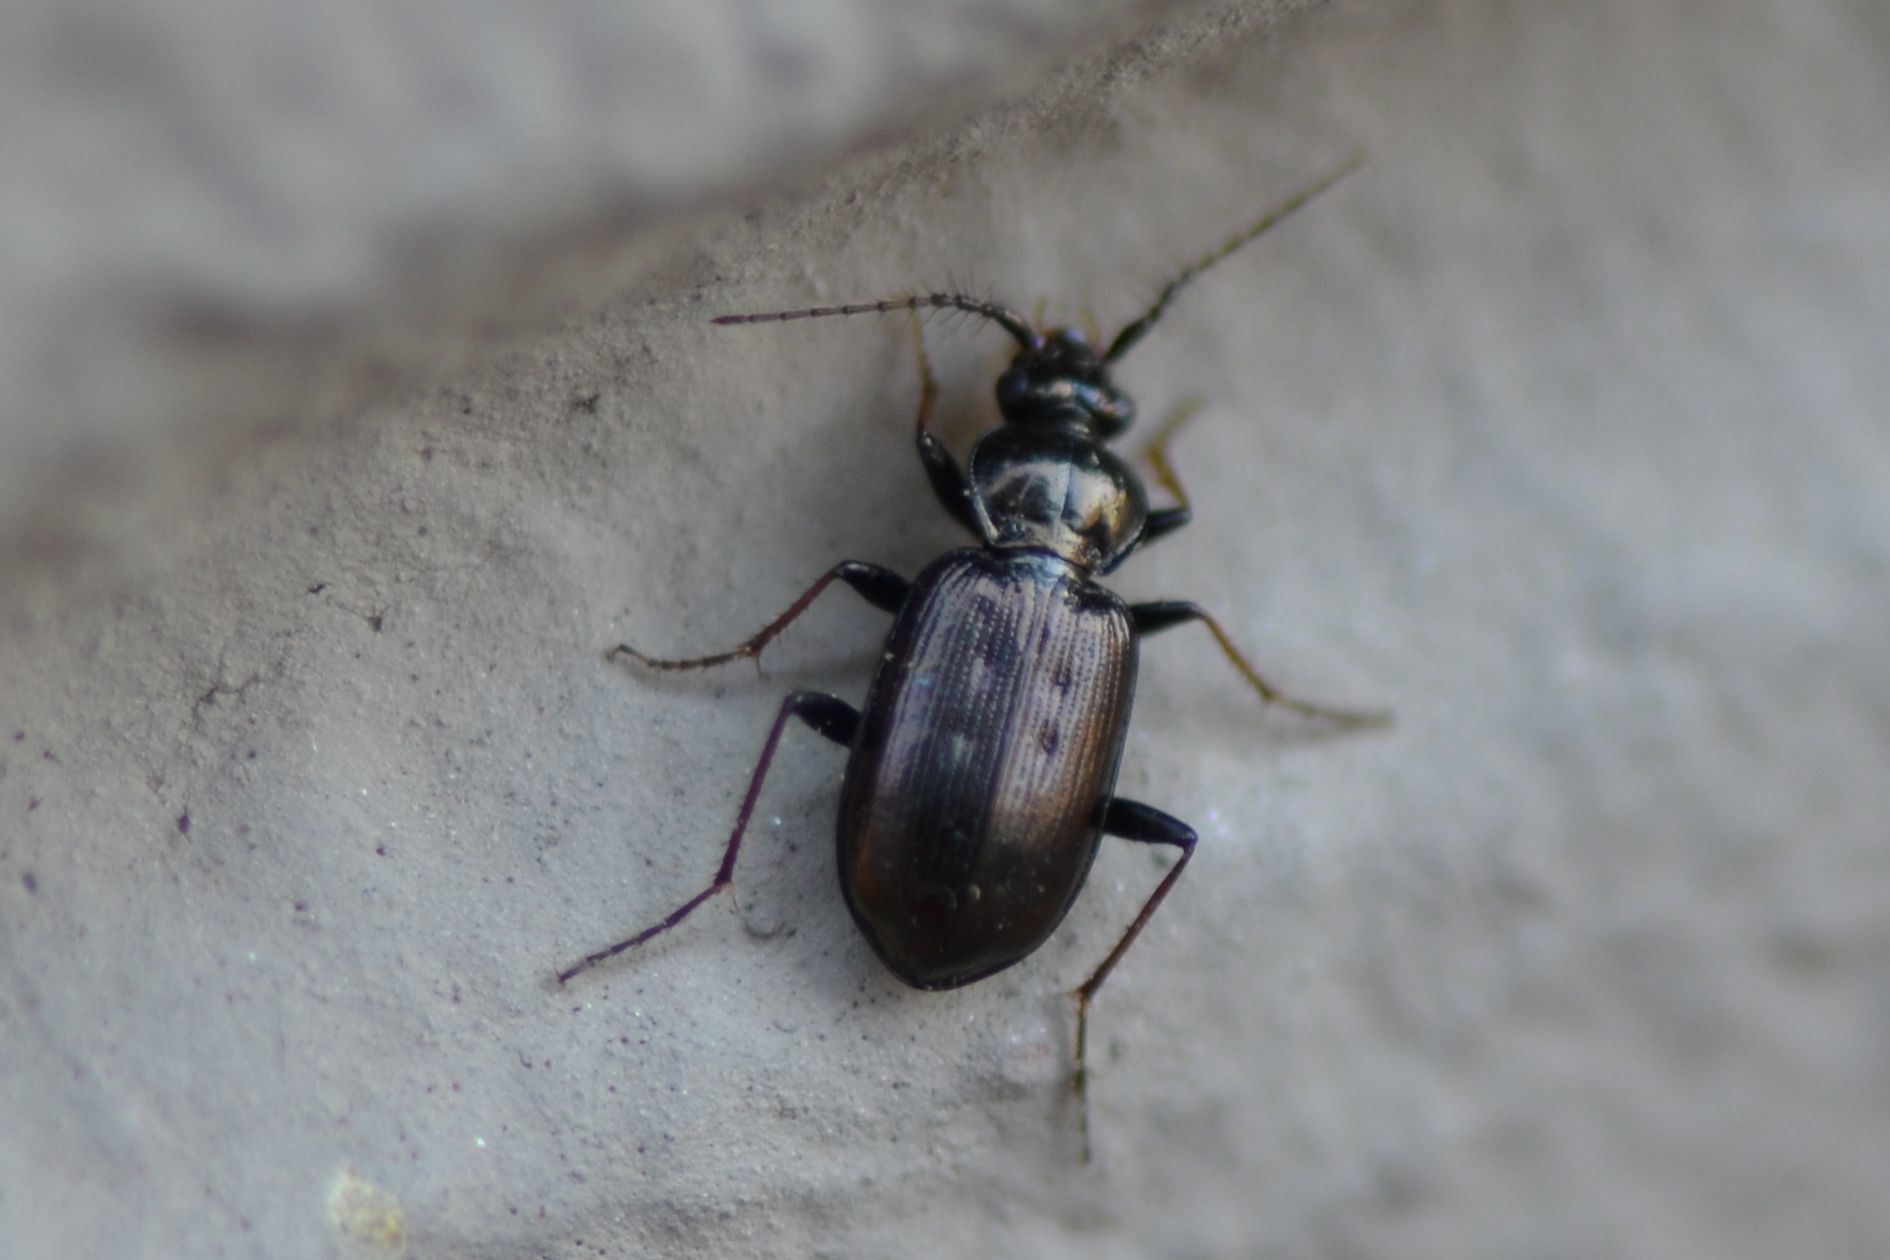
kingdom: Animalia
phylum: Arthropoda
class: Insecta
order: Coleoptera
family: Carabidae
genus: Loricera
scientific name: Loricera pilicornis
